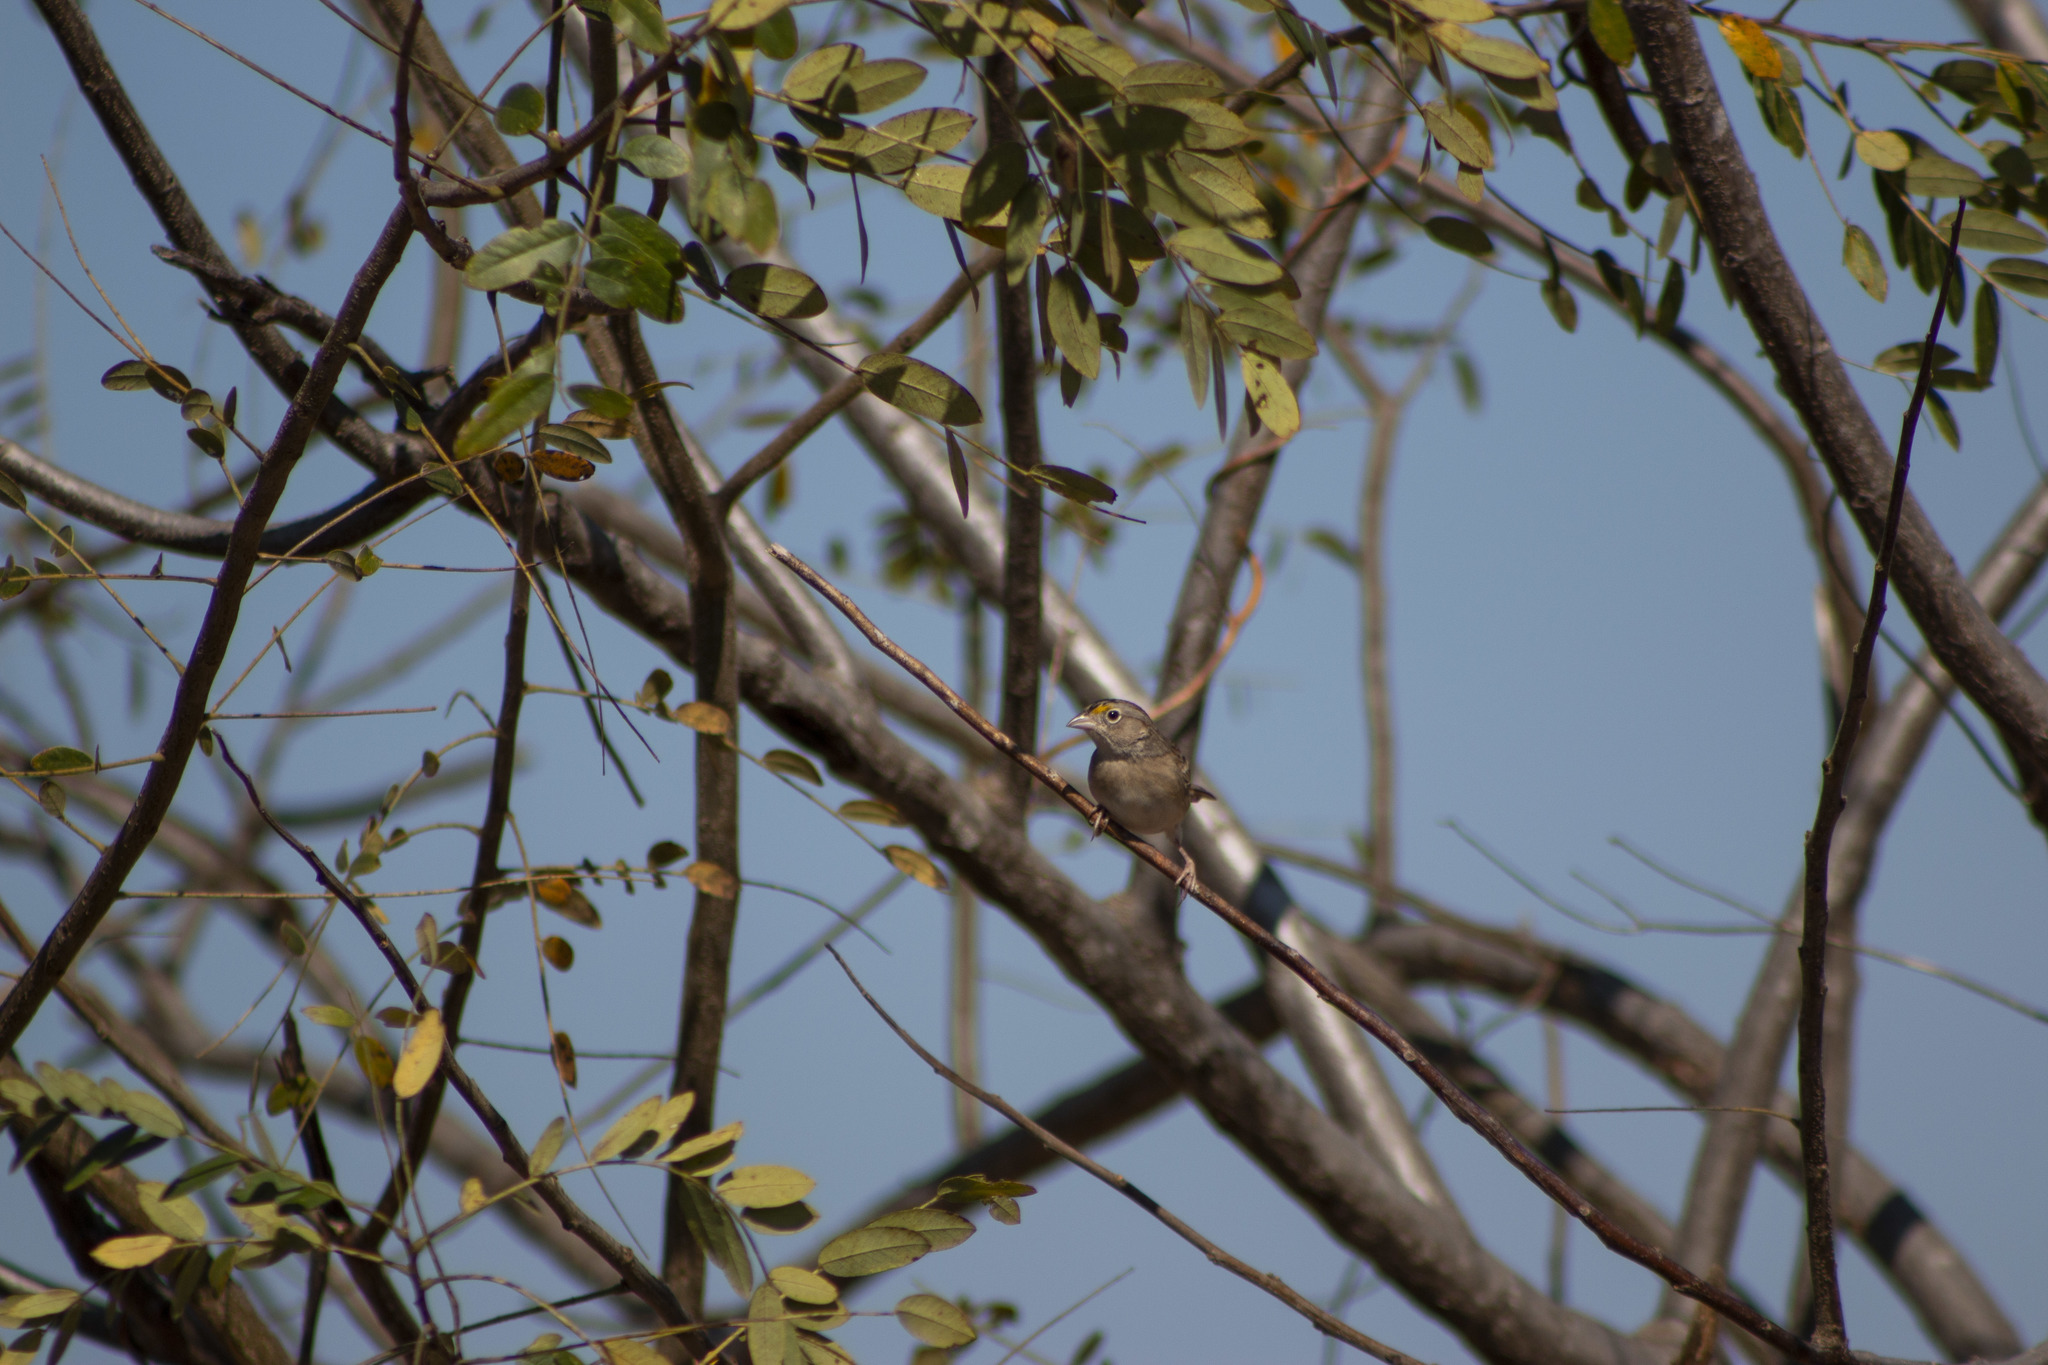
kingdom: Animalia
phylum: Chordata
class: Aves
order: Passeriformes
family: Passerellidae
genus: Ammodramus
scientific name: Ammodramus humeralis
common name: Grassland sparrow
